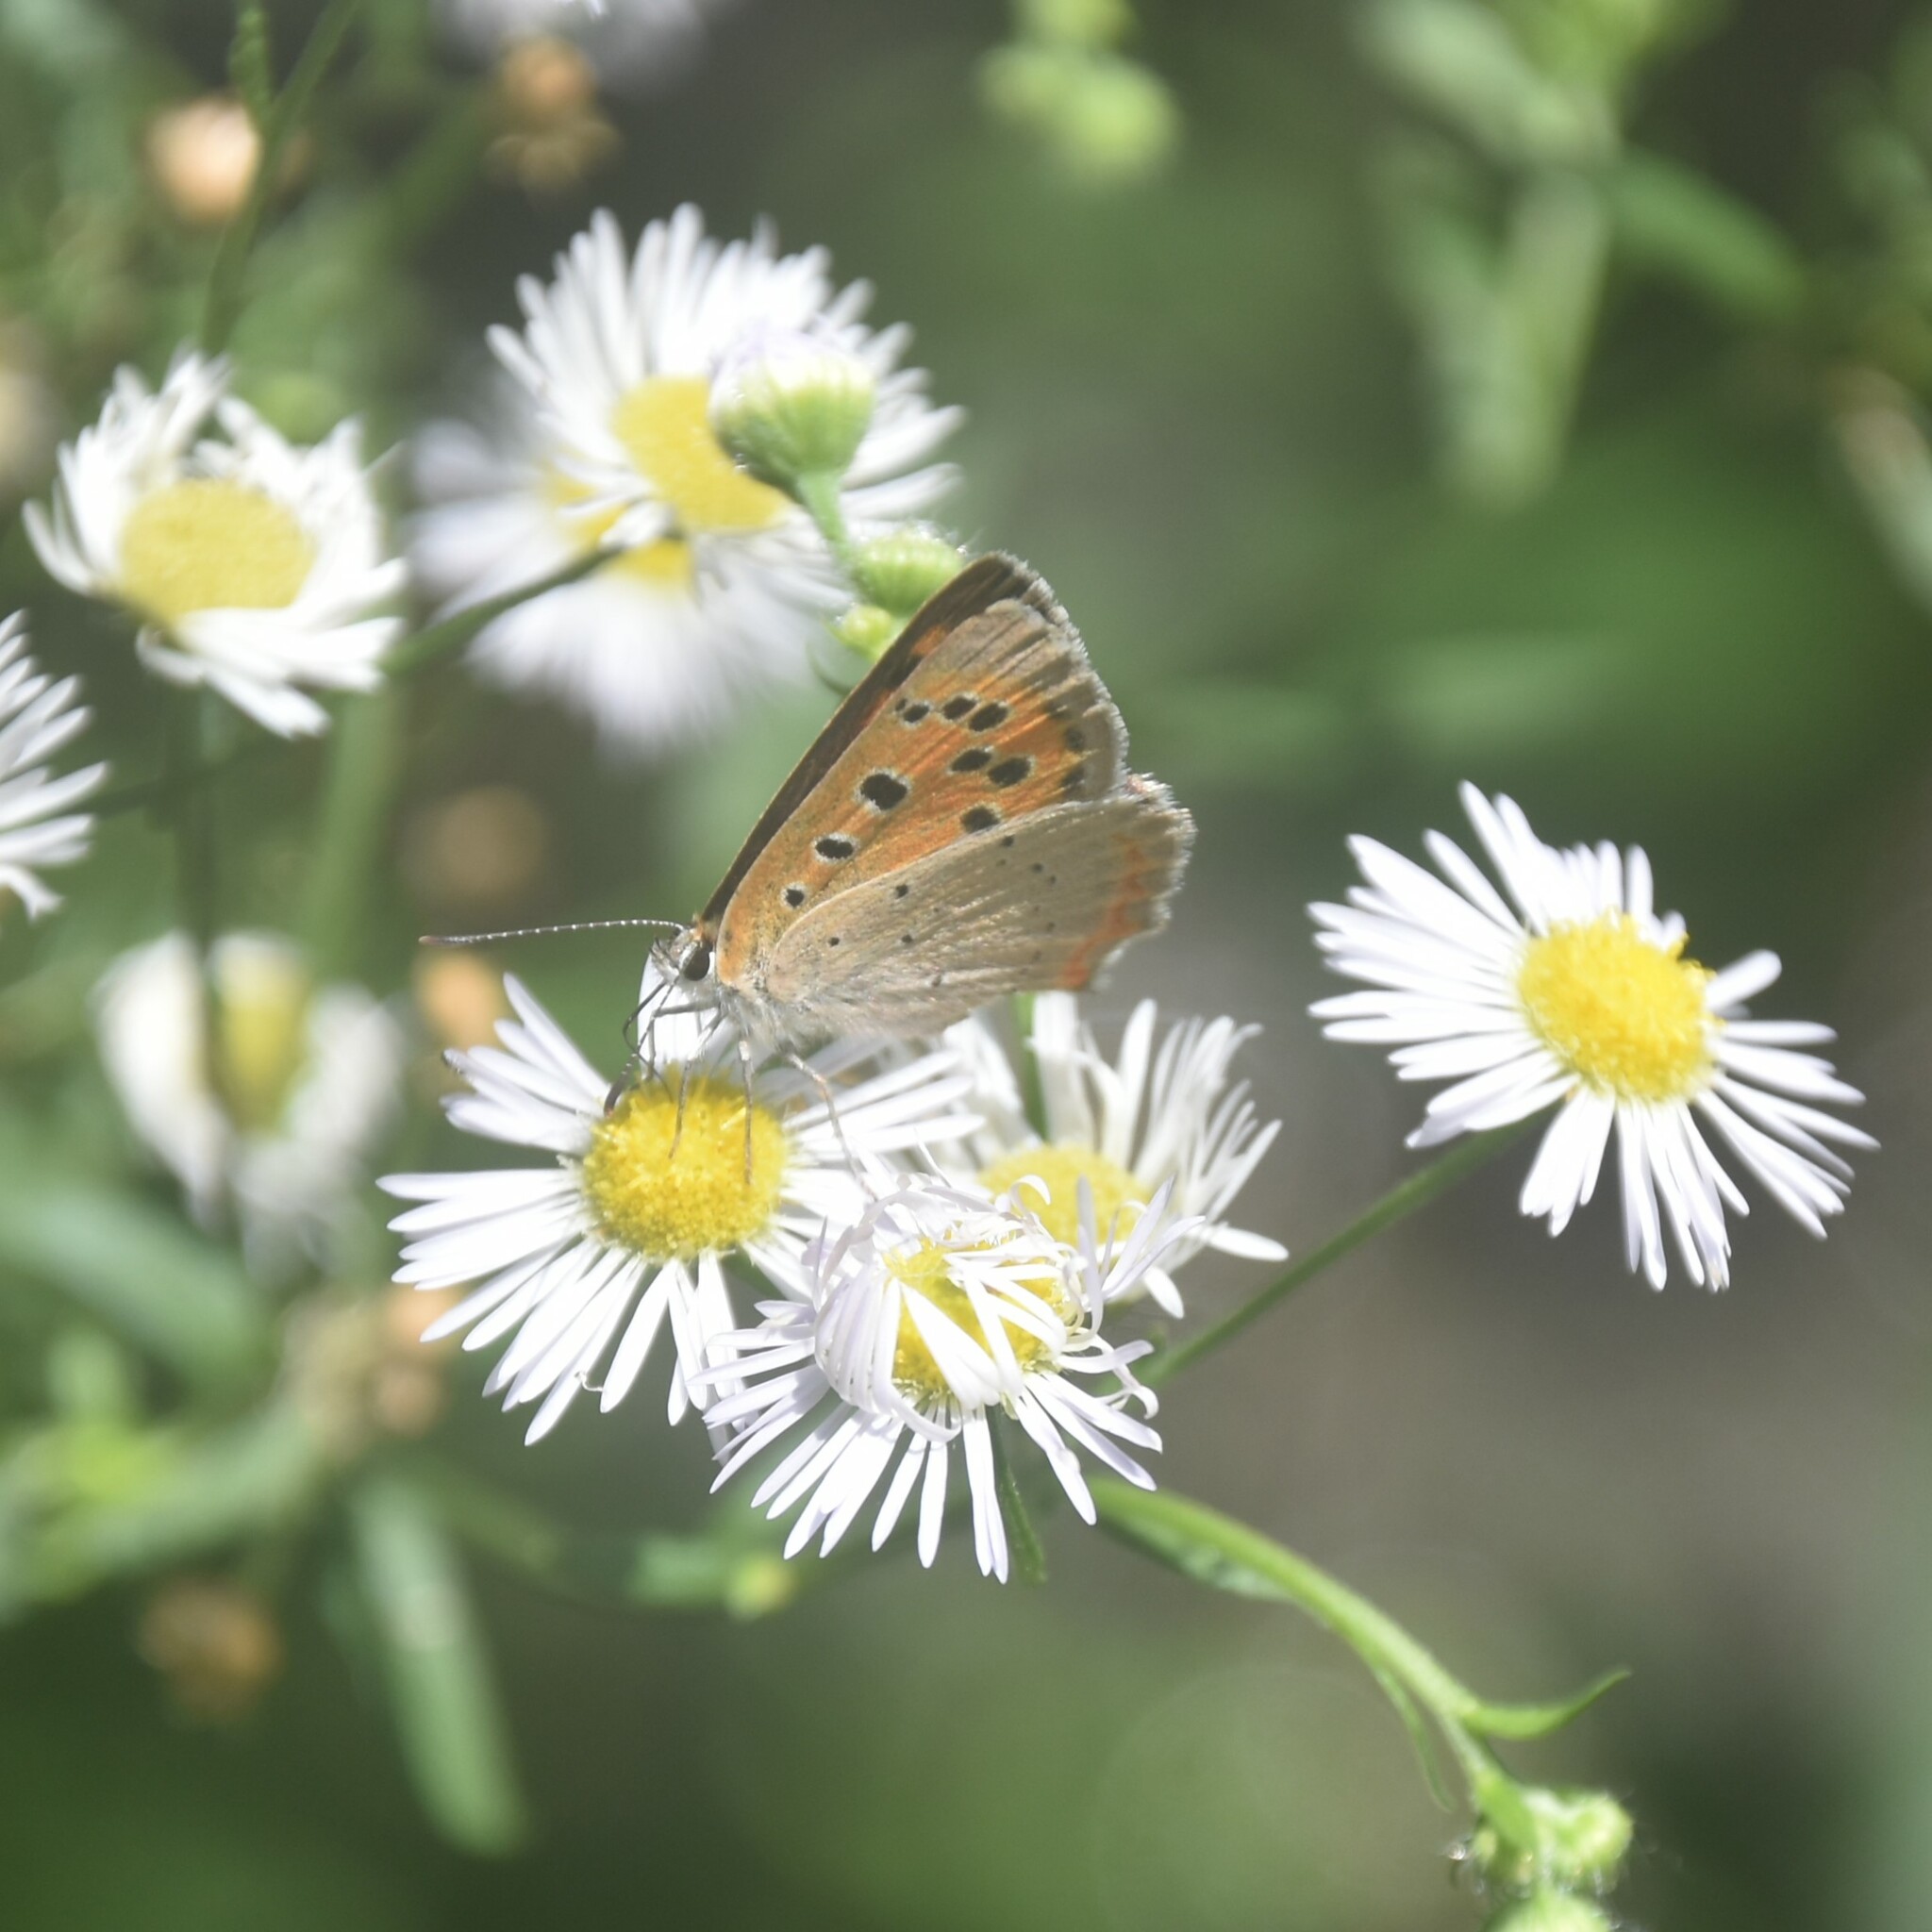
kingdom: Animalia
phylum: Arthropoda
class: Insecta
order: Lepidoptera
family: Lycaenidae
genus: Lycaena
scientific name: Lycaena phlaeas
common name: Small copper
